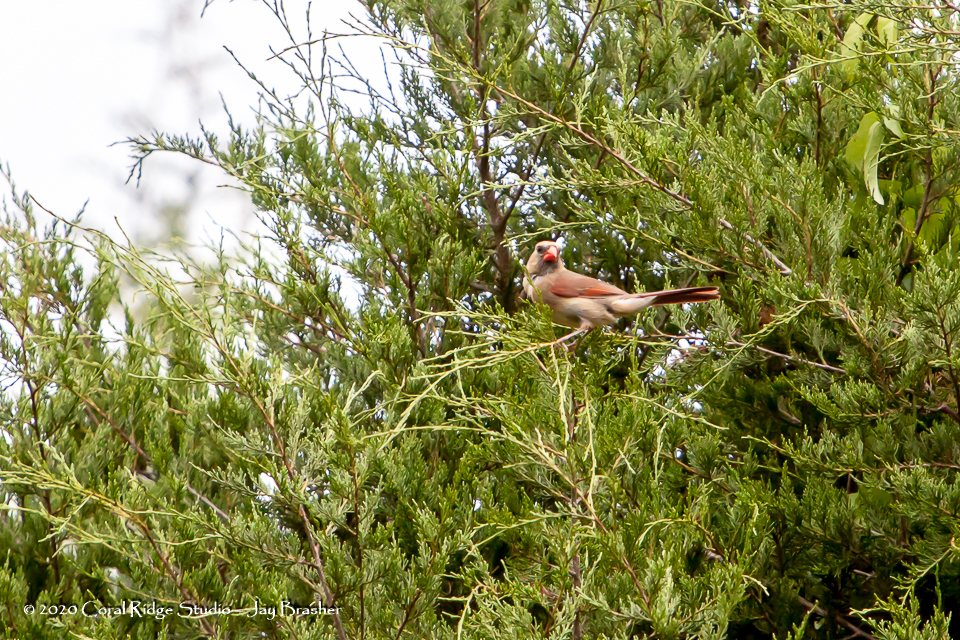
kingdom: Animalia
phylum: Chordata
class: Aves
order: Passeriformes
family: Cardinalidae
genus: Cardinalis
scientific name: Cardinalis cardinalis
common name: Northern cardinal
